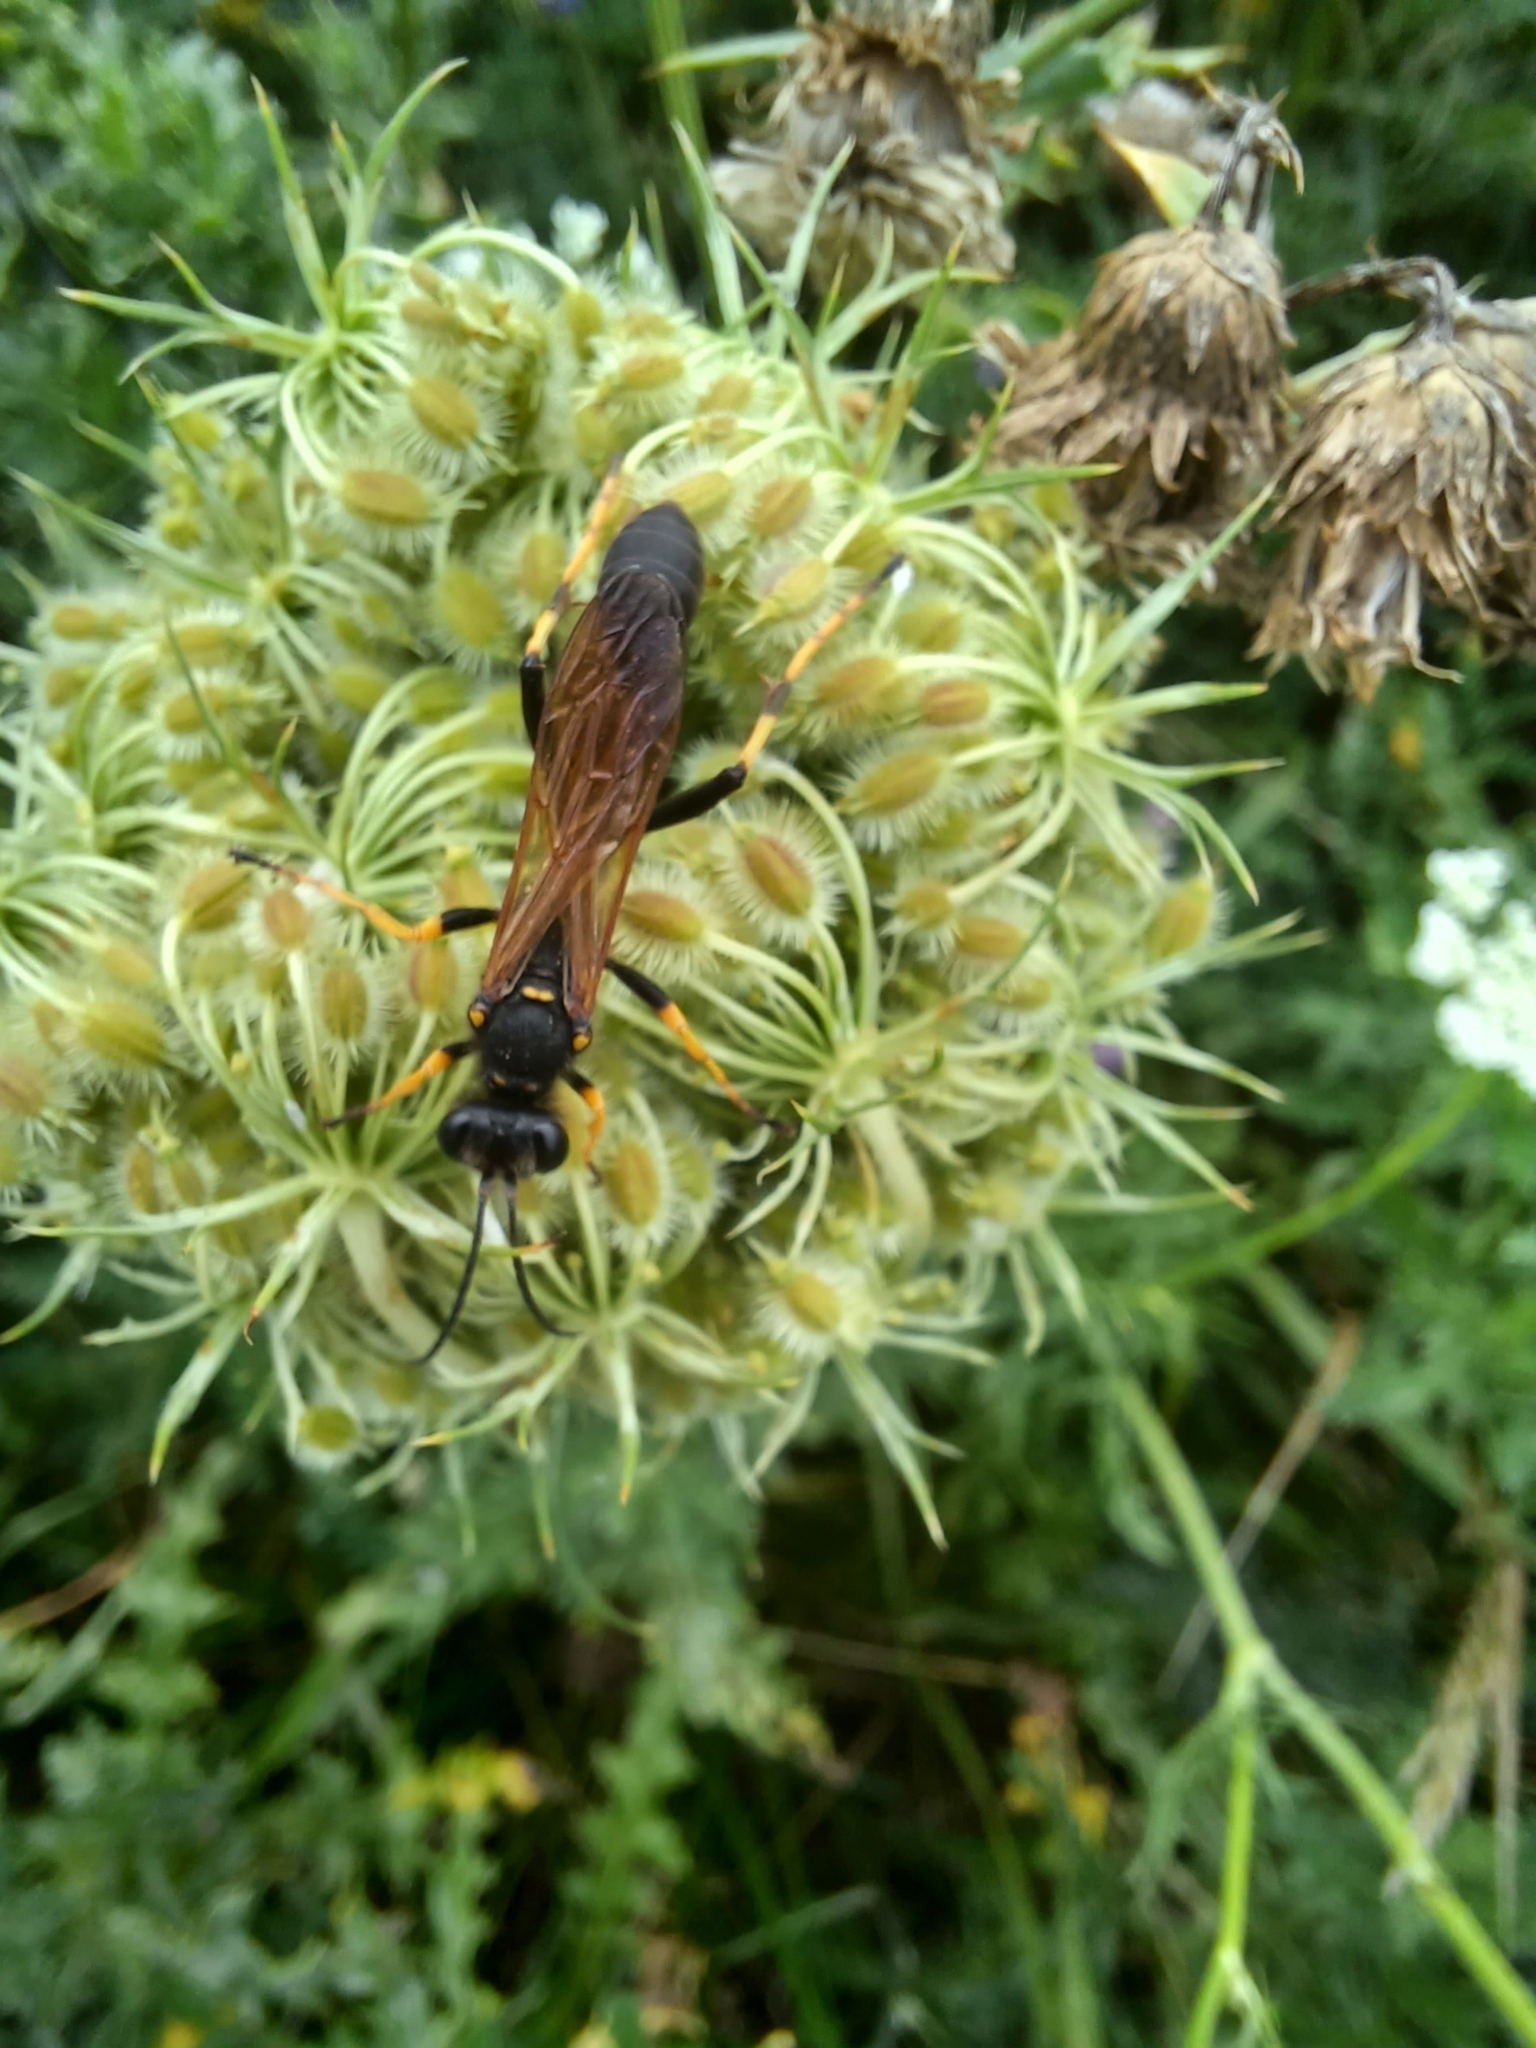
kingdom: Animalia
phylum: Arthropoda
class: Insecta
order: Hymenoptera
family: Sphecidae
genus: Sceliphron
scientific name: Sceliphron caementarium
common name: Mud dauber
